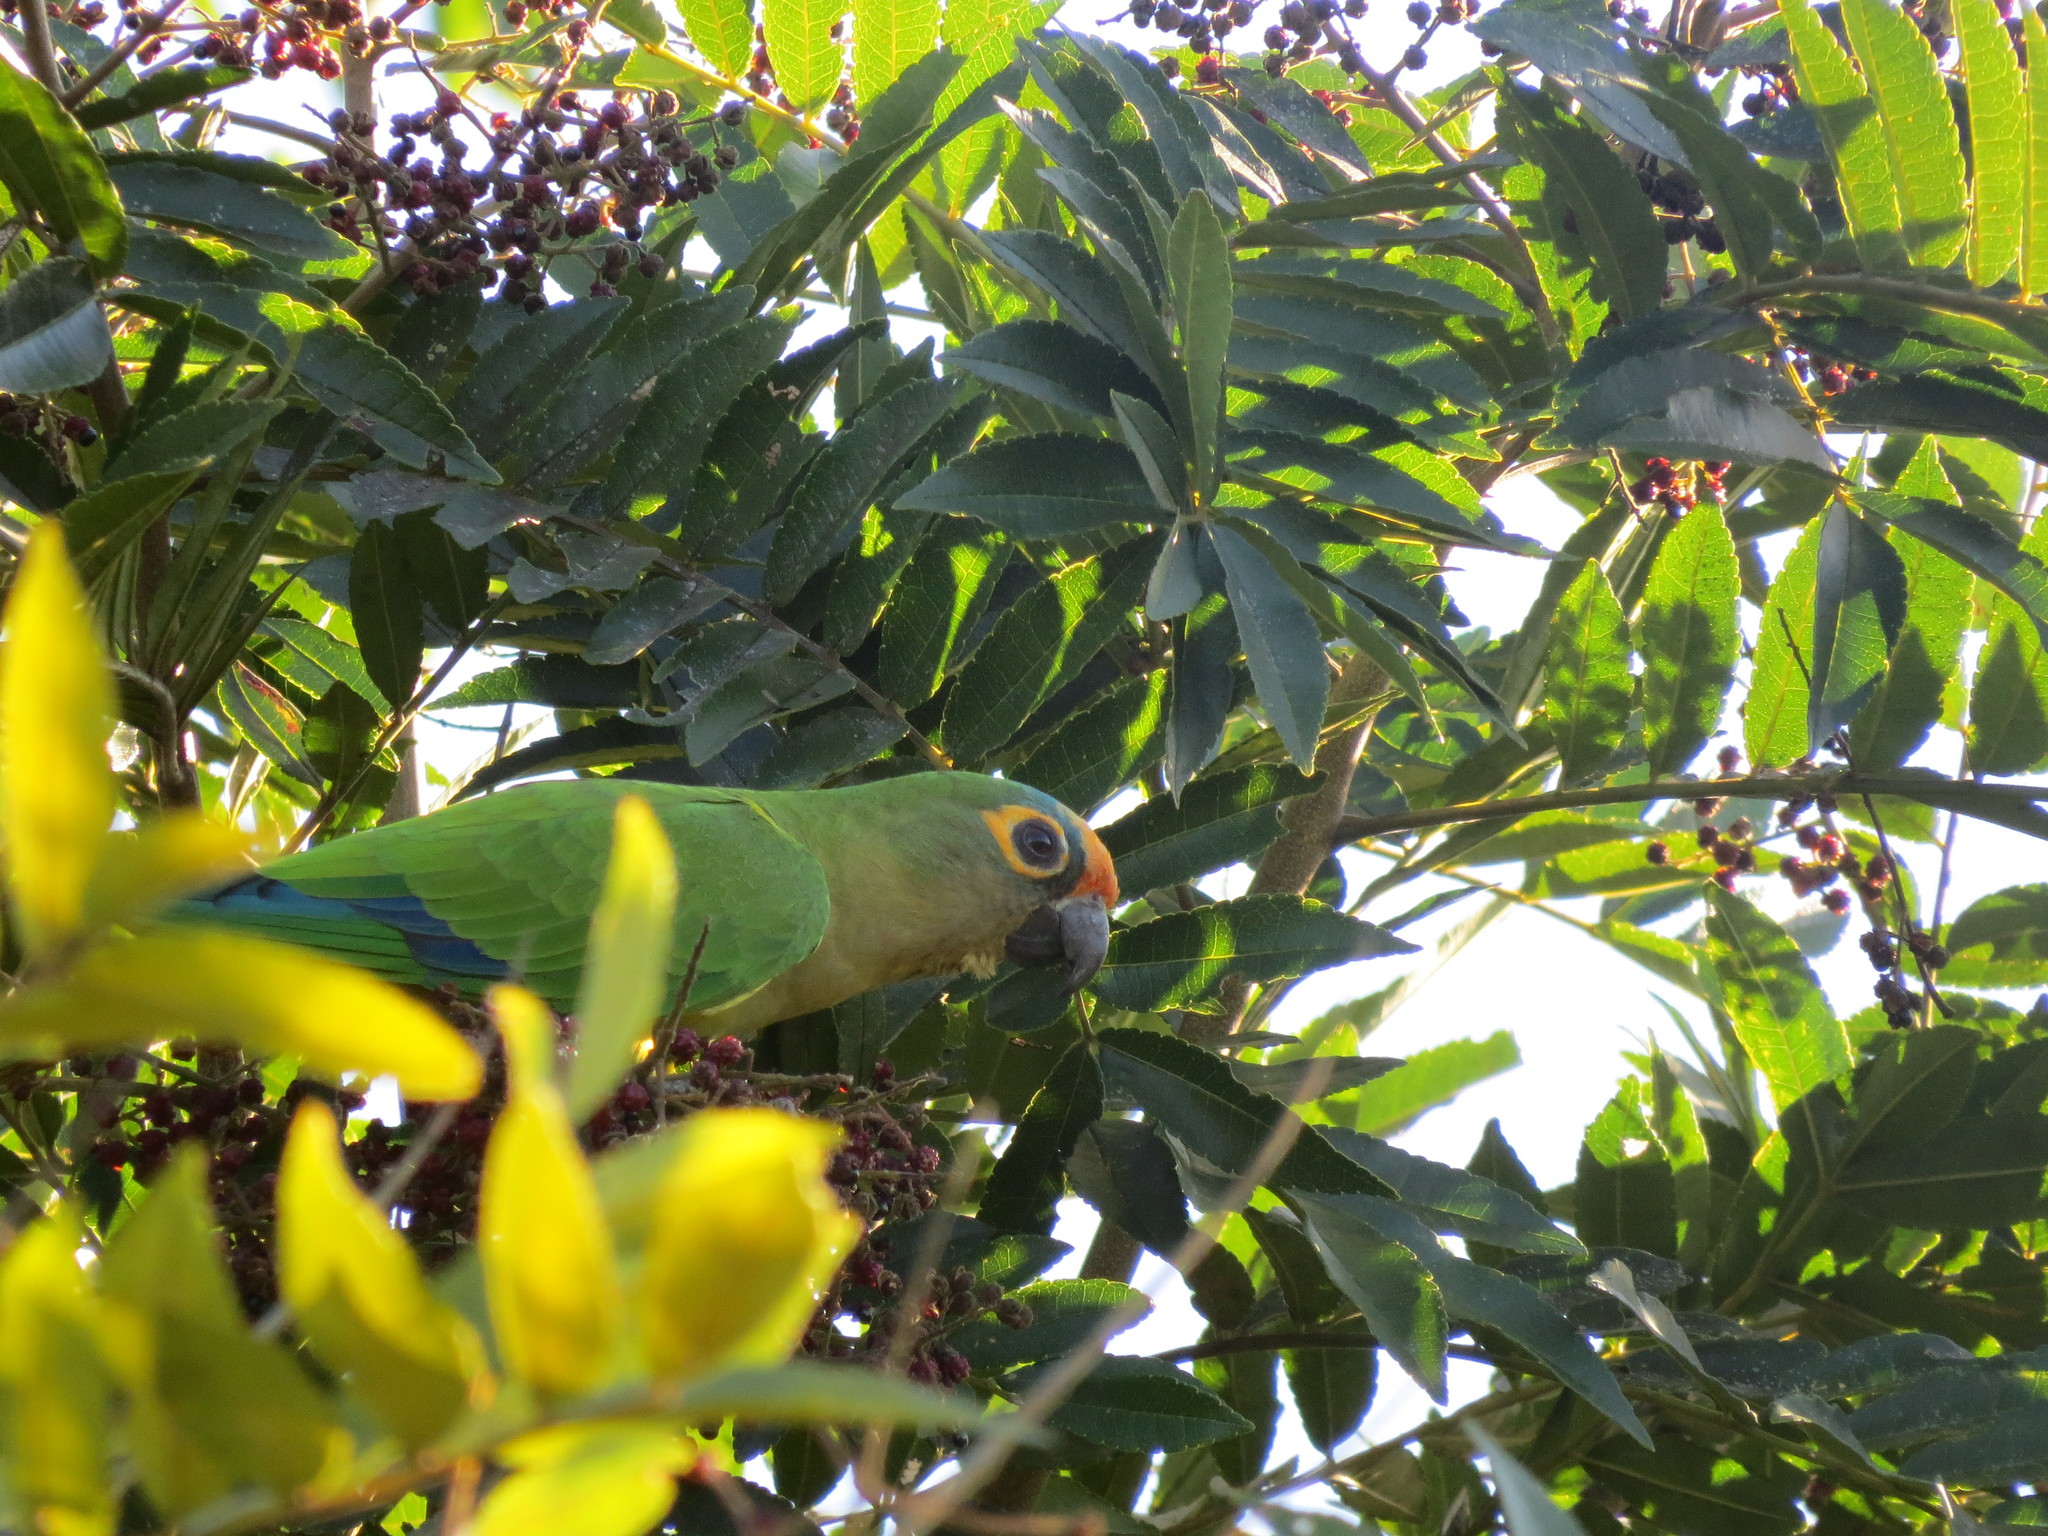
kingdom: Animalia
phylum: Chordata
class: Aves
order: Psittaciformes
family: Psittacidae
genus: Aratinga
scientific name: Aratinga aurea
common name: Peach-fronted parakeet
